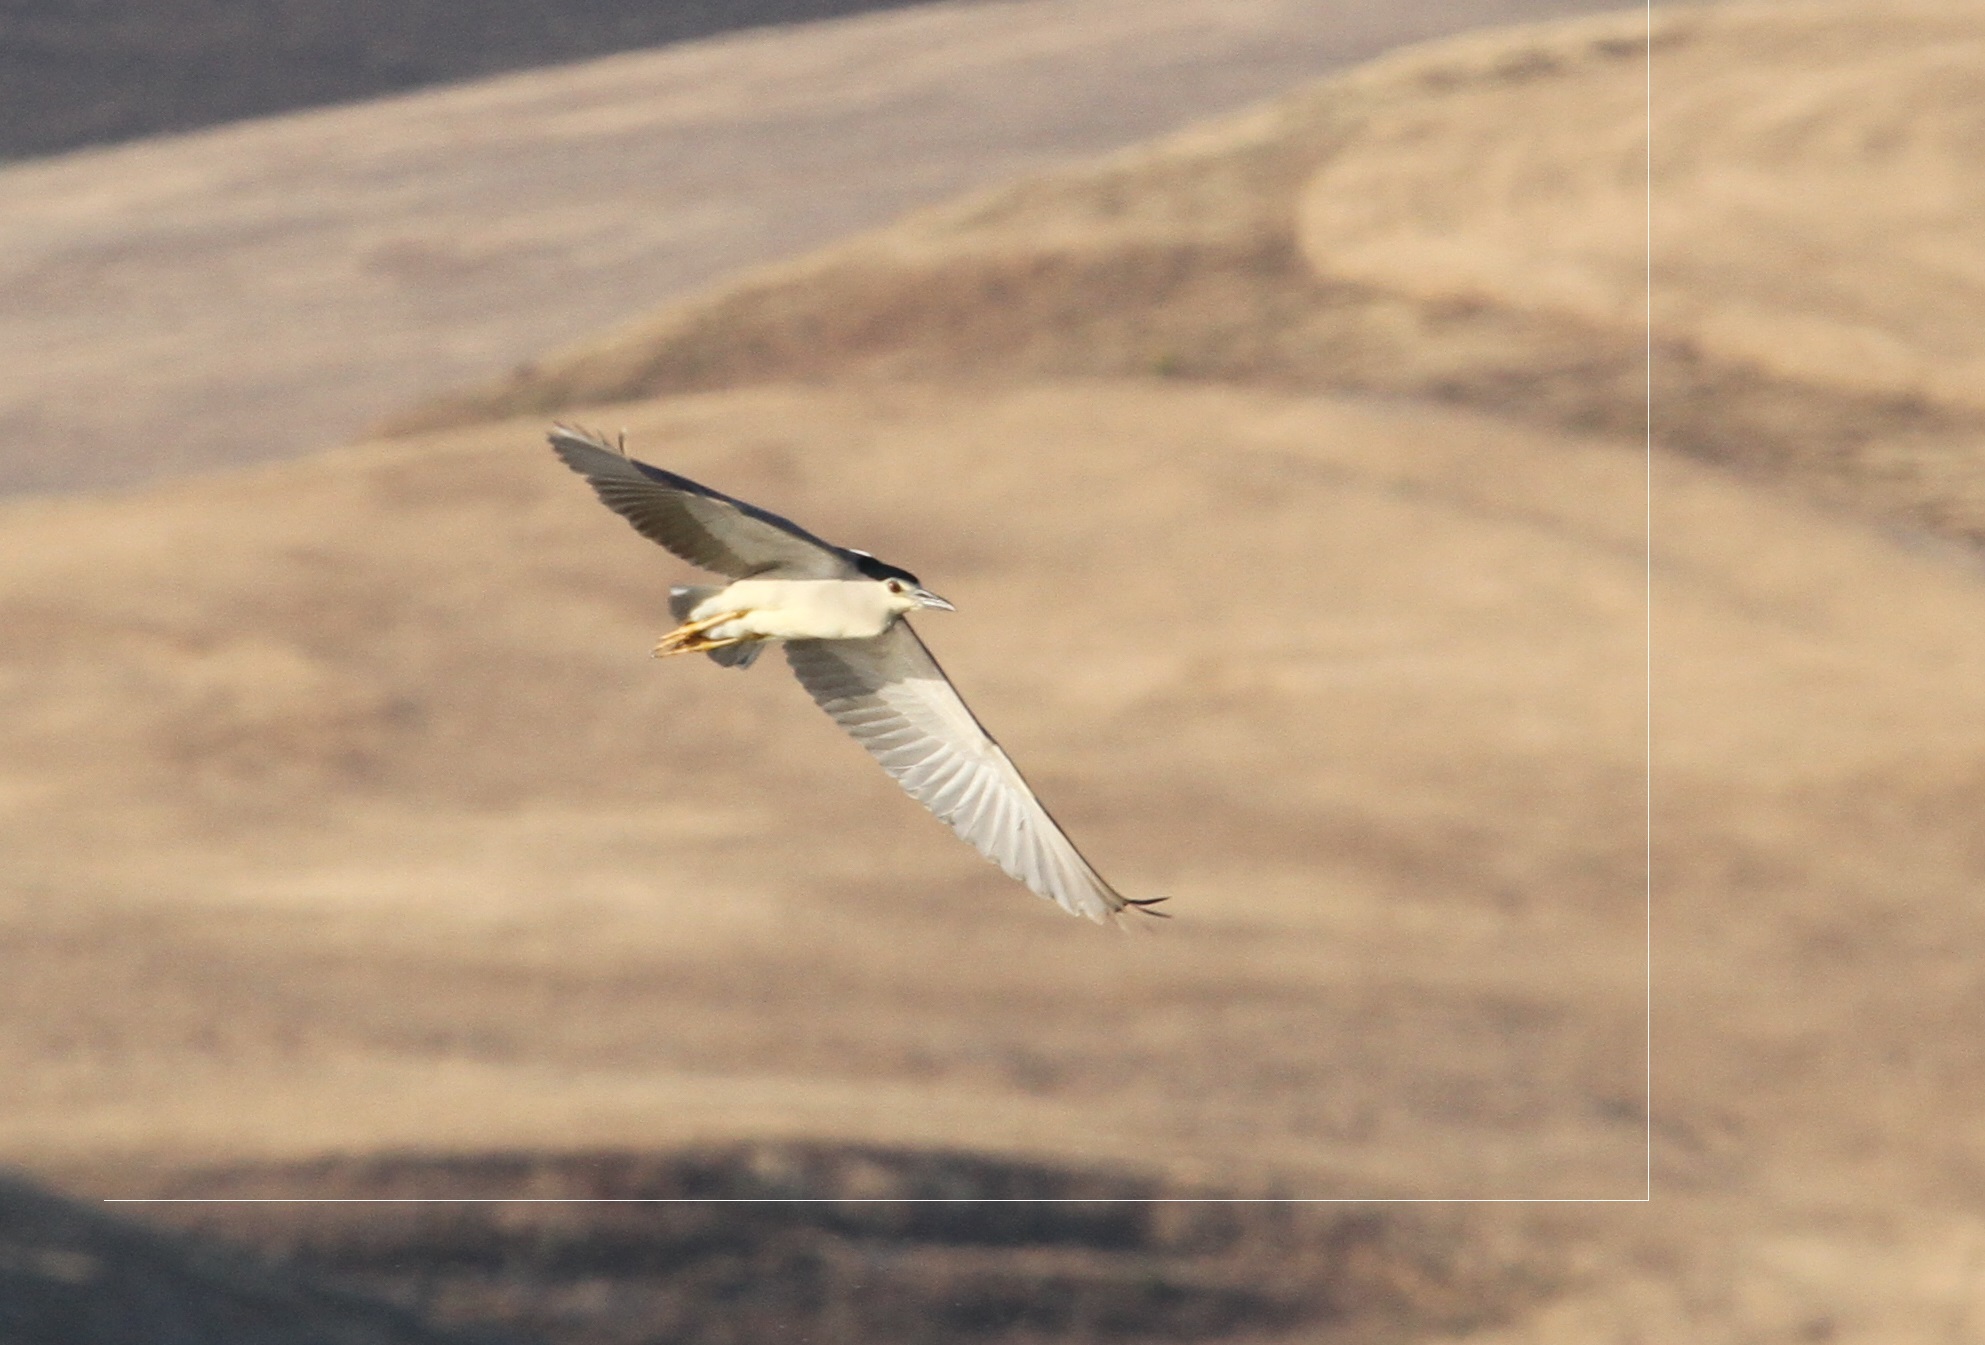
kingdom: Animalia
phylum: Chordata
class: Aves
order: Pelecaniformes
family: Ardeidae
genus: Nycticorax
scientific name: Nycticorax nycticorax
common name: Black-crowned night heron
